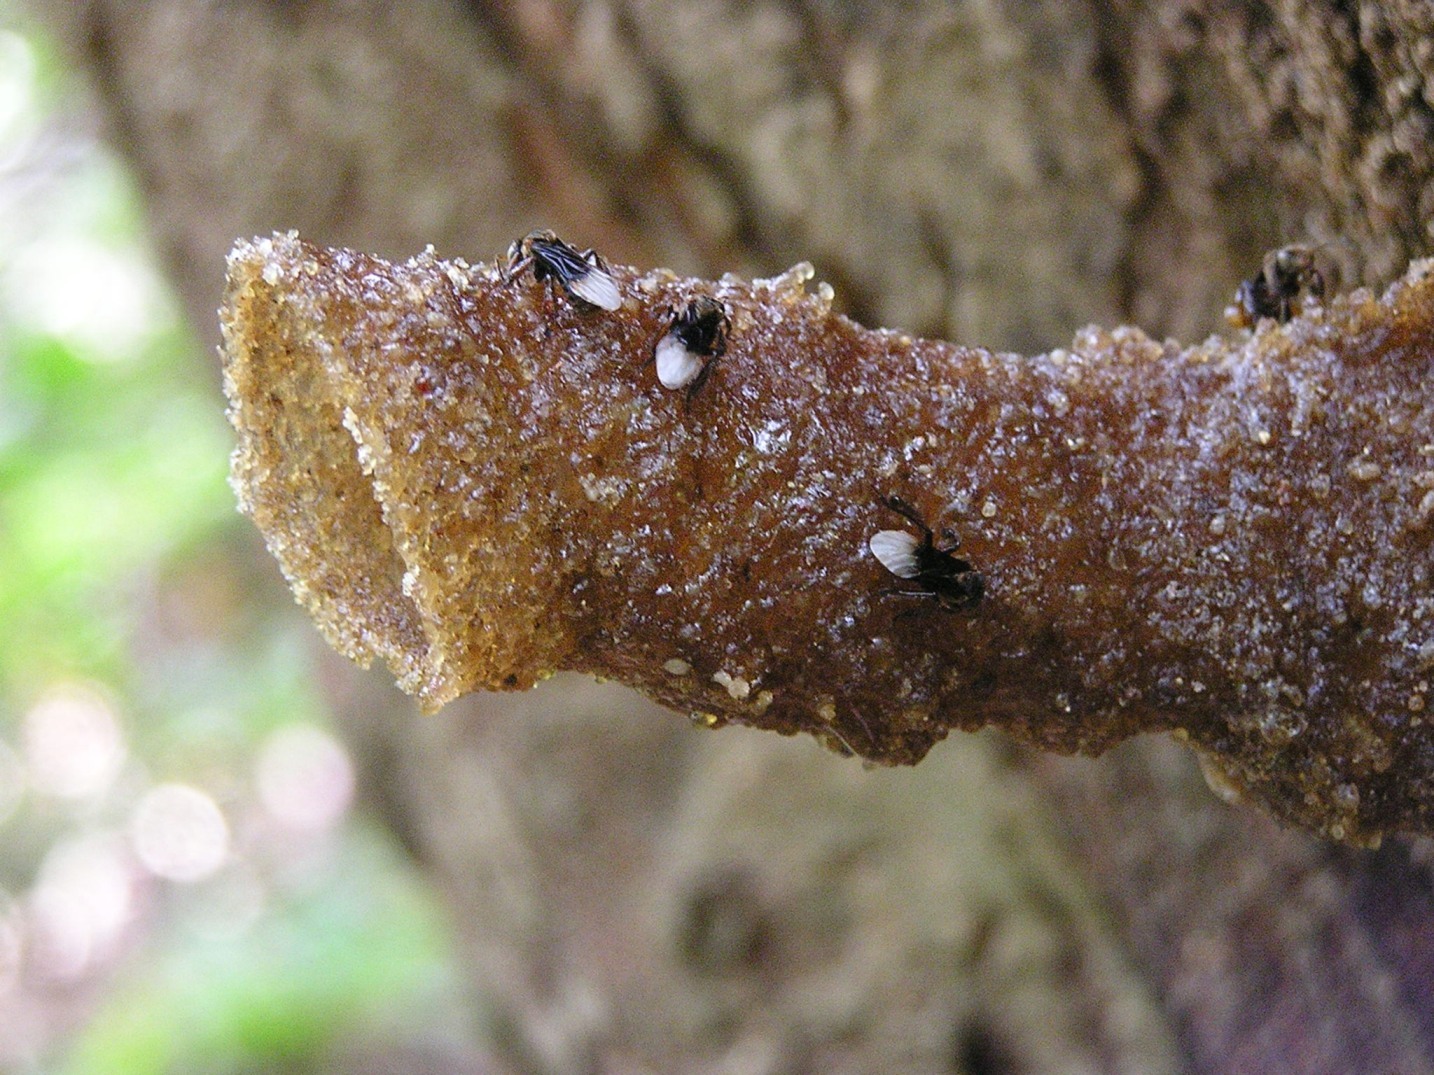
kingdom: Animalia
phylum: Arthropoda
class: Insecta
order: Hymenoptera
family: Apidae
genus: Tetragonula
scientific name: Tetragonula collina
